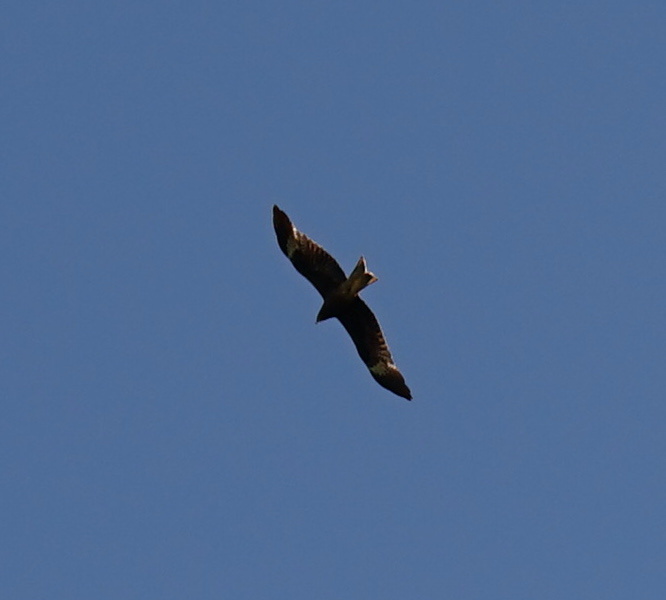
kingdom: Animalia
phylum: Chordata
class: Aves
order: Accipitriformes
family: Accipitridae
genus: Milvus
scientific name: Milvus migrans
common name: Black kite
